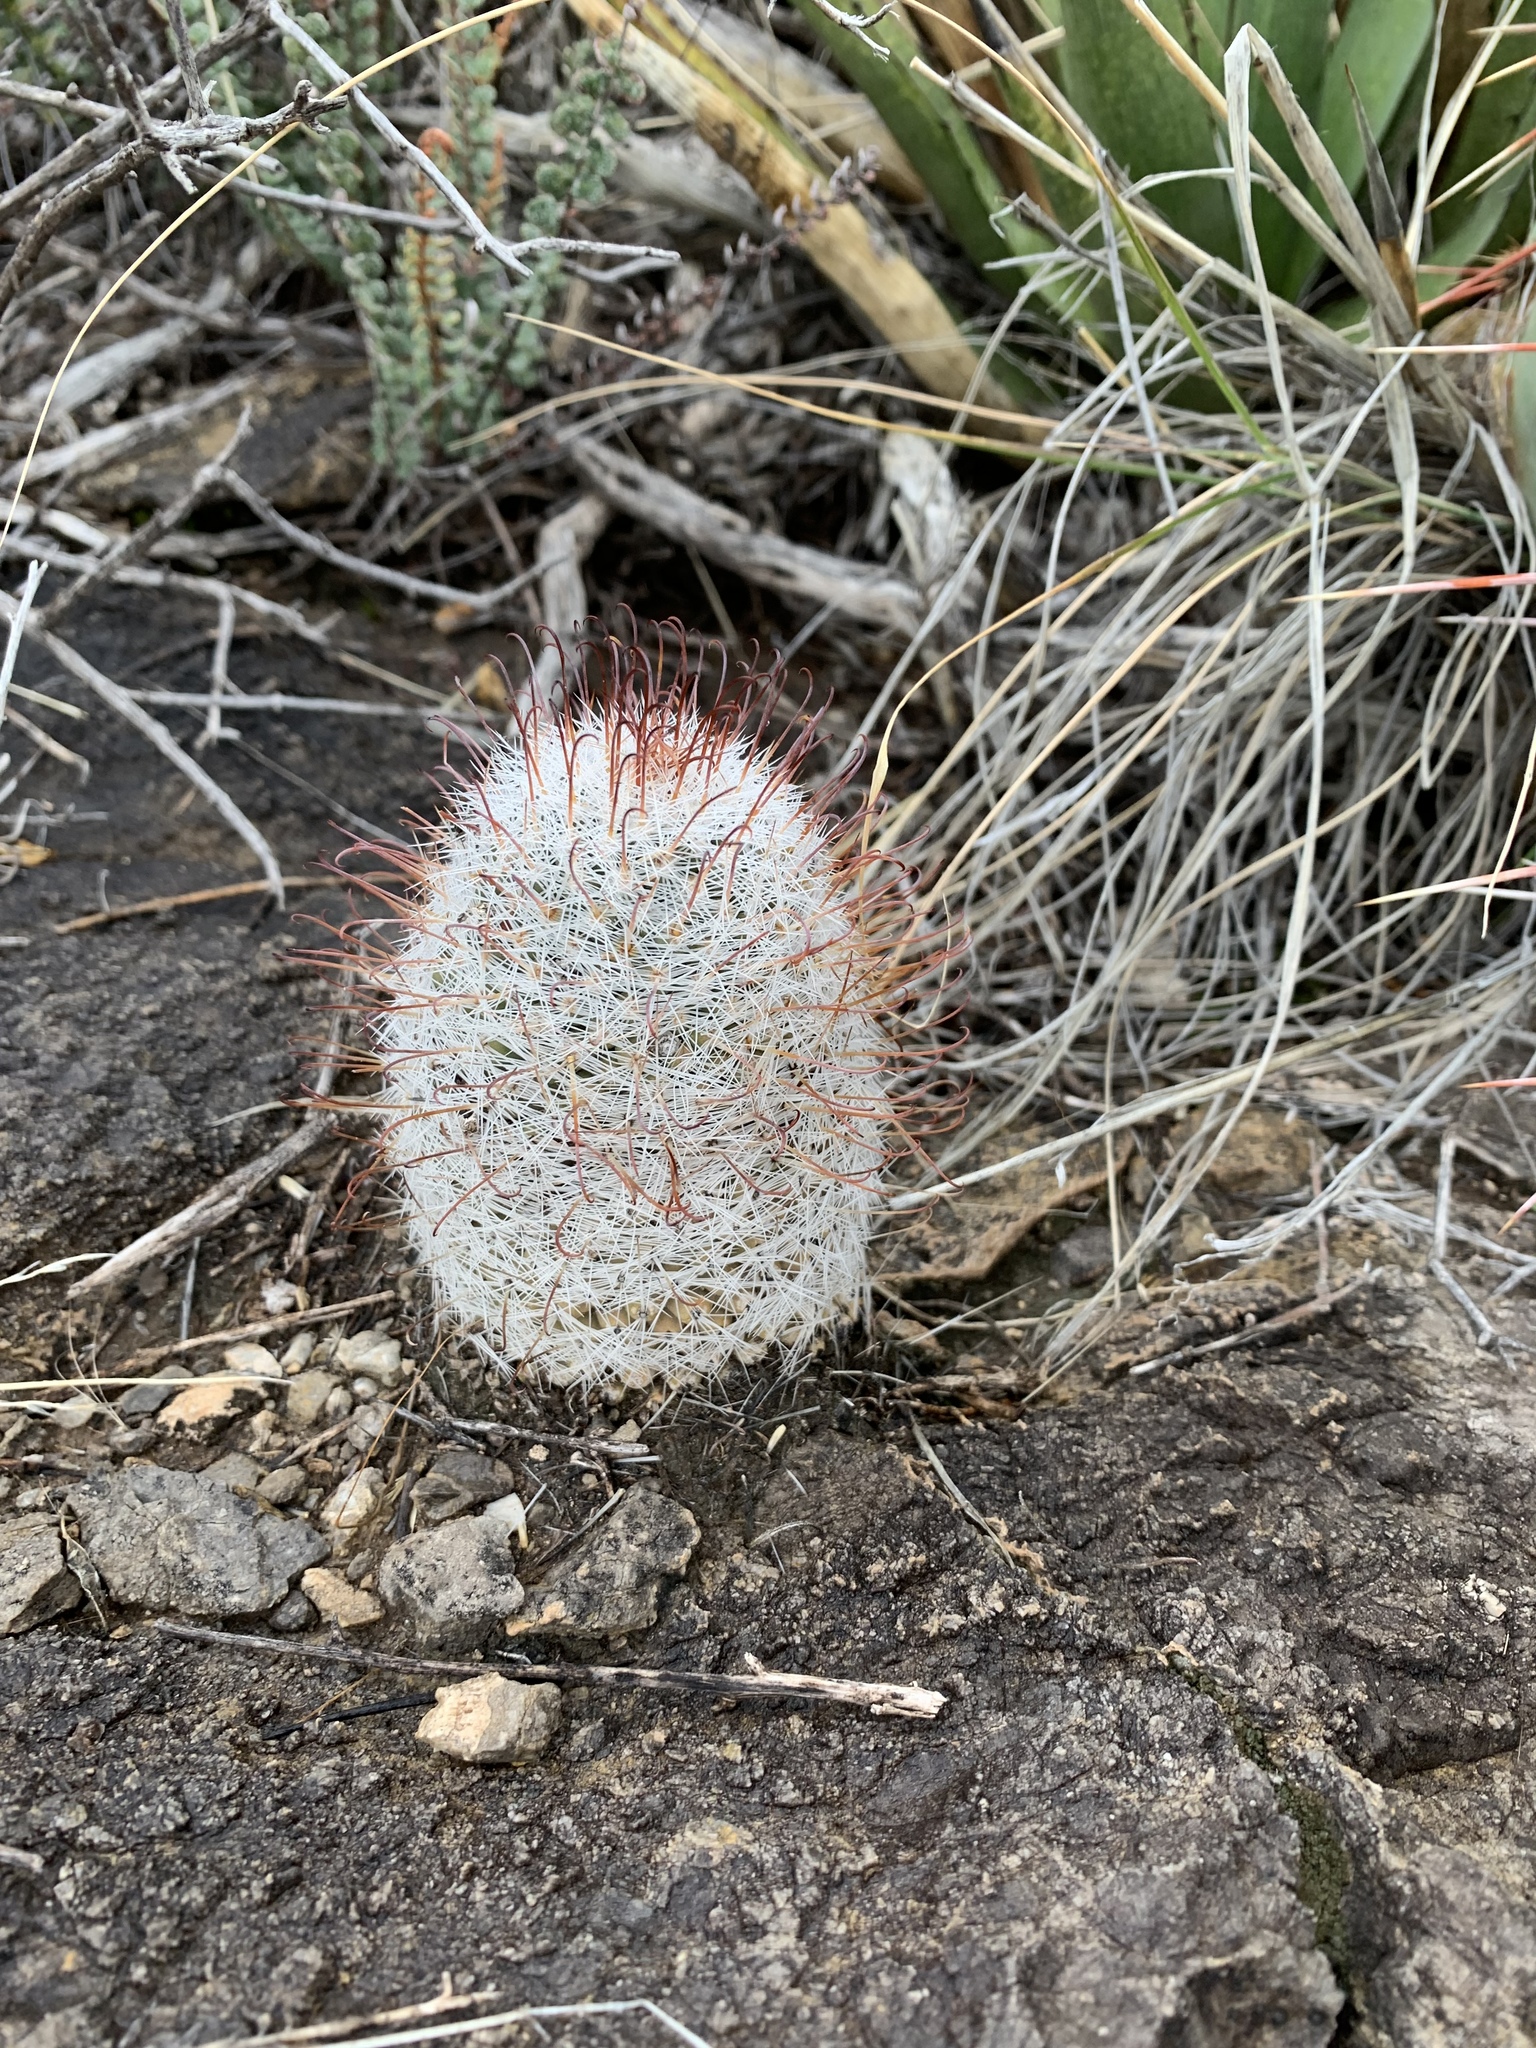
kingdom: Plantae
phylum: Tracheophyta
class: Magnoliopsida
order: Caryophyllales
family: Cactaceae
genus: Cochemiea
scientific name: Cochemiea grahamii
